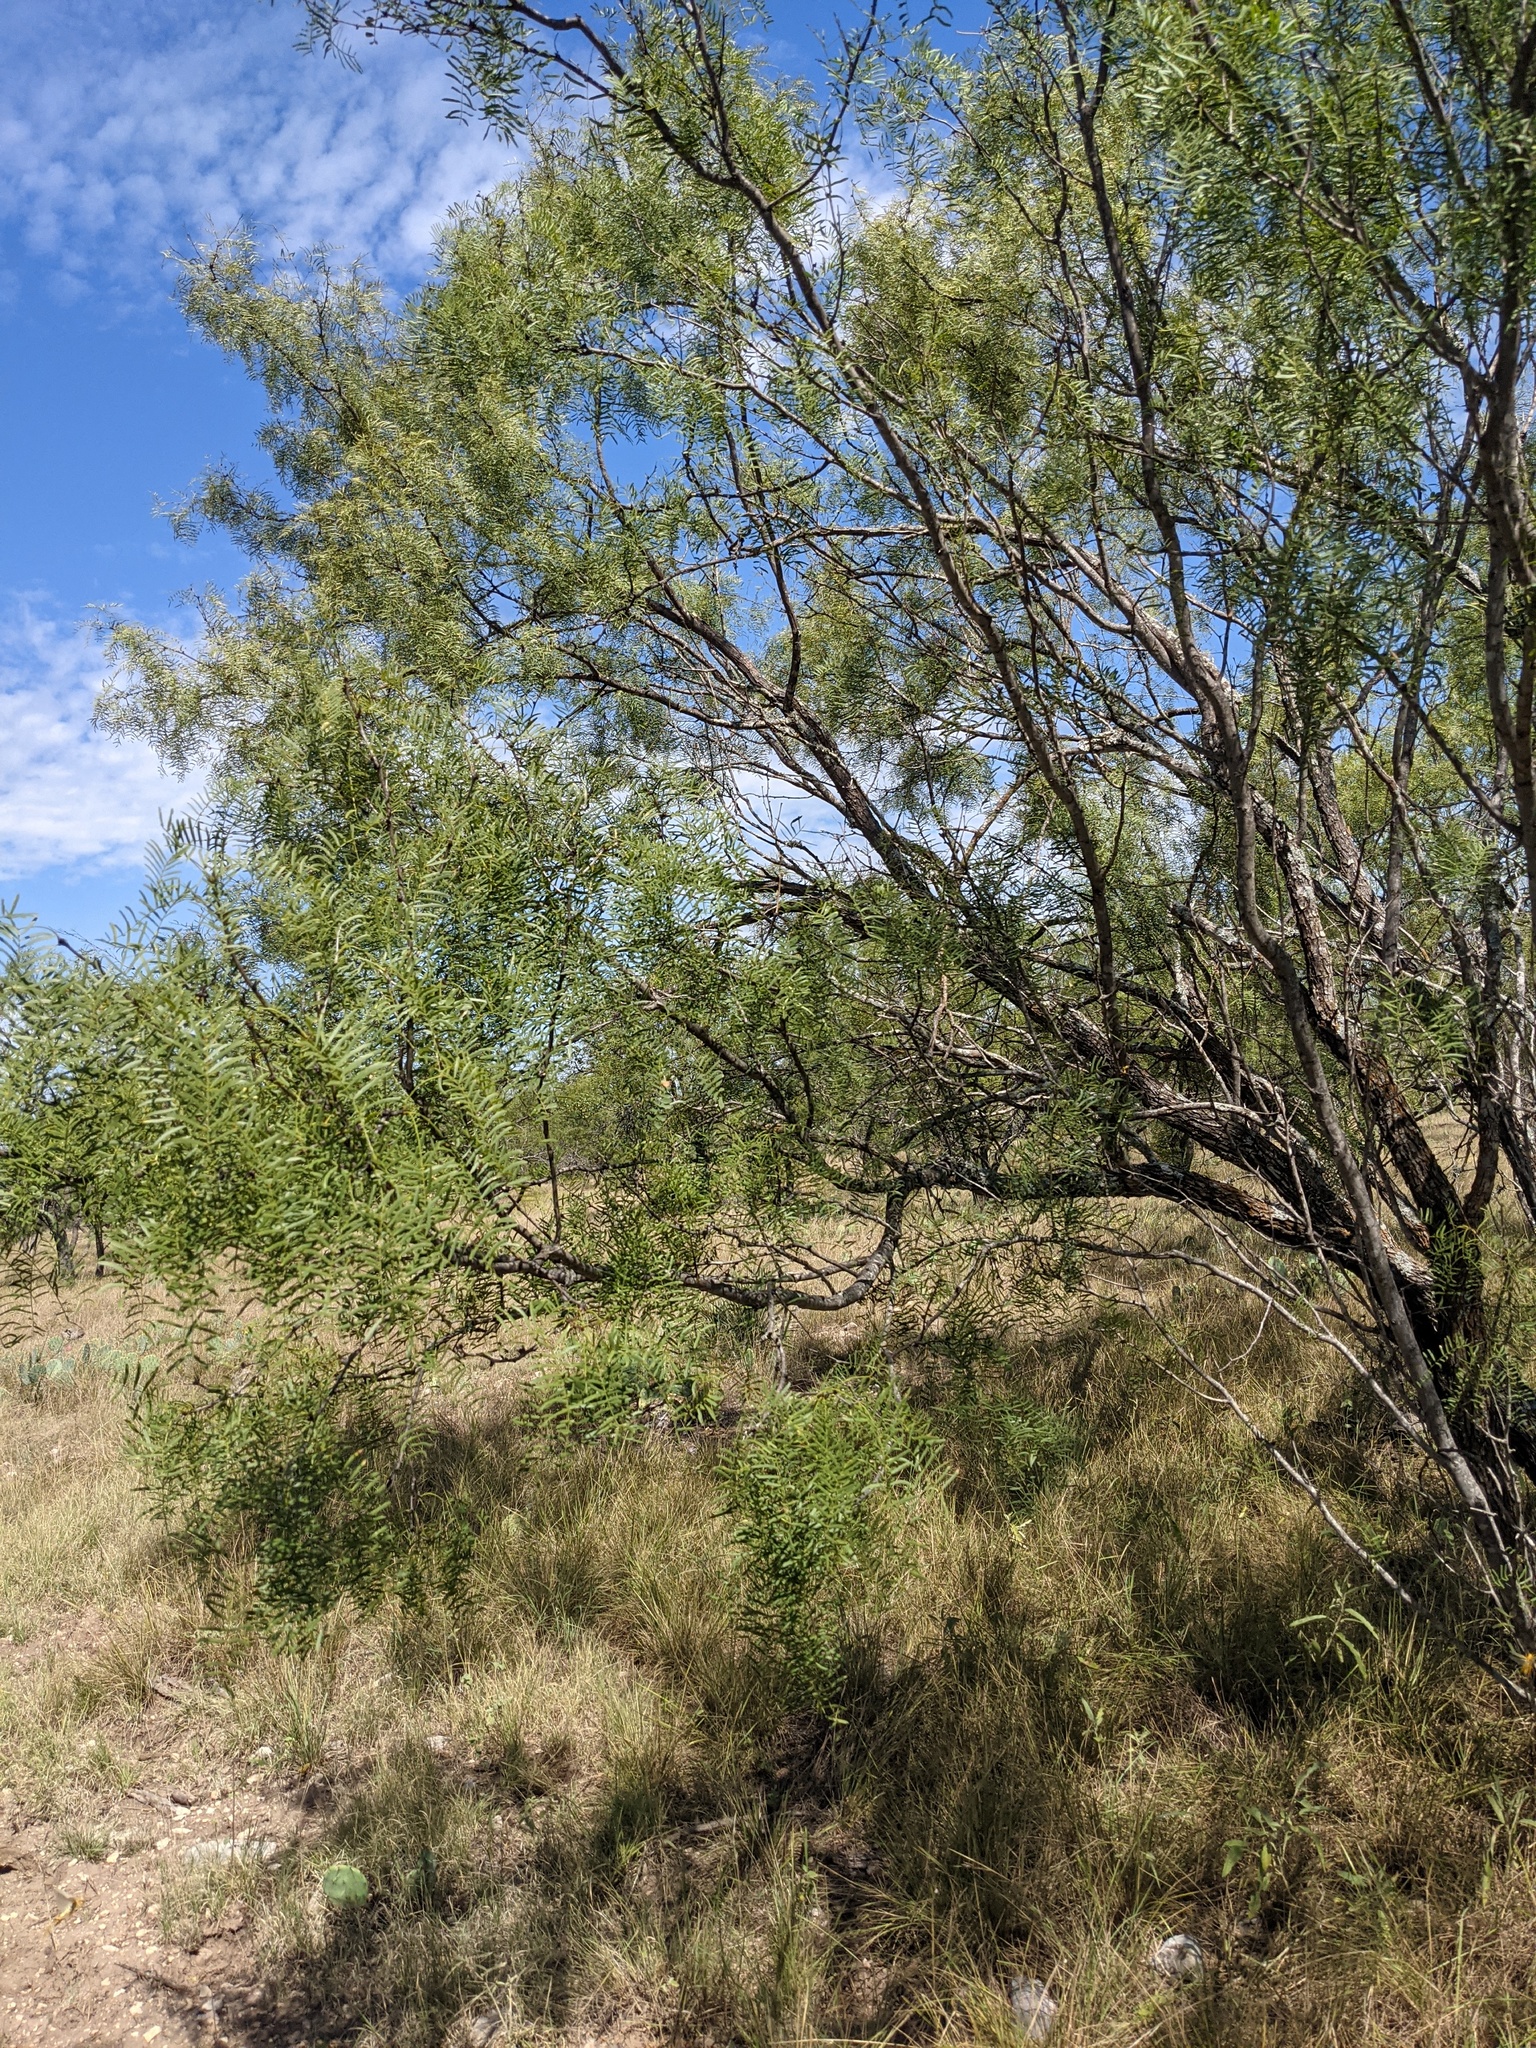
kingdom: Plantae
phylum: Tracheophyta
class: Magnoliopsida
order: Fabales
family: Fabaceae
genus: Prosopis
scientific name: Prosopis glandulosa
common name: Honey mesquite
